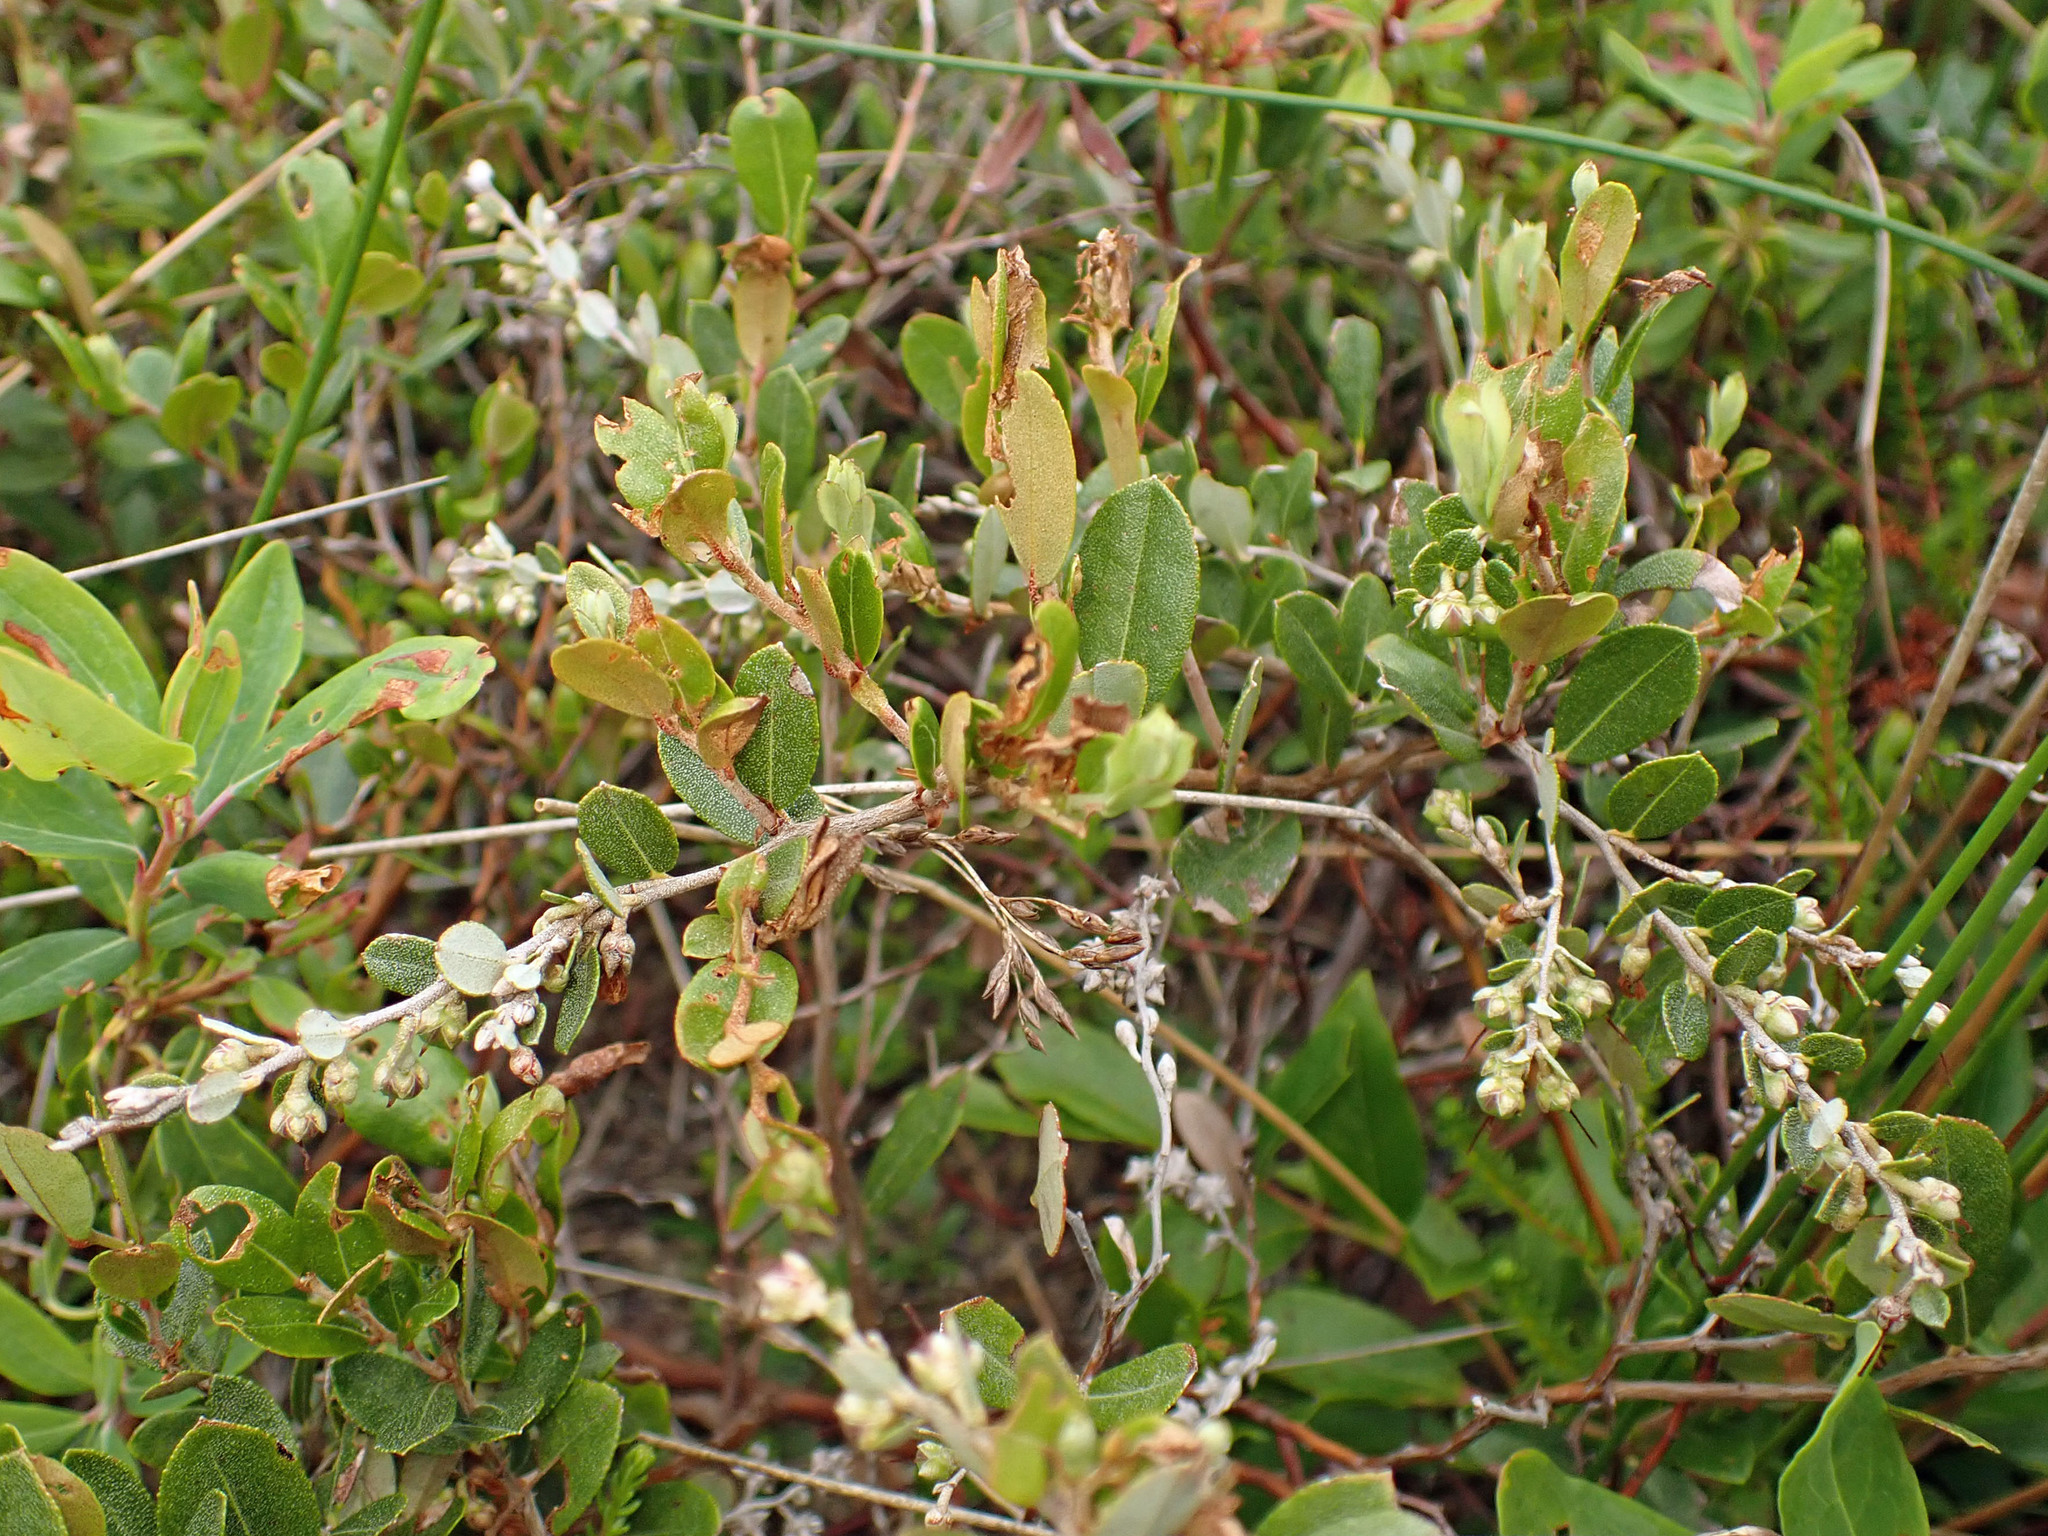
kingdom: Plantae
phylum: Tracheophyta
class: Magnoliopsida
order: Ericales
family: Ericaceae
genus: Chamaedaphne
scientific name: Chamaedaphne calyculata
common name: Leatherleaf
